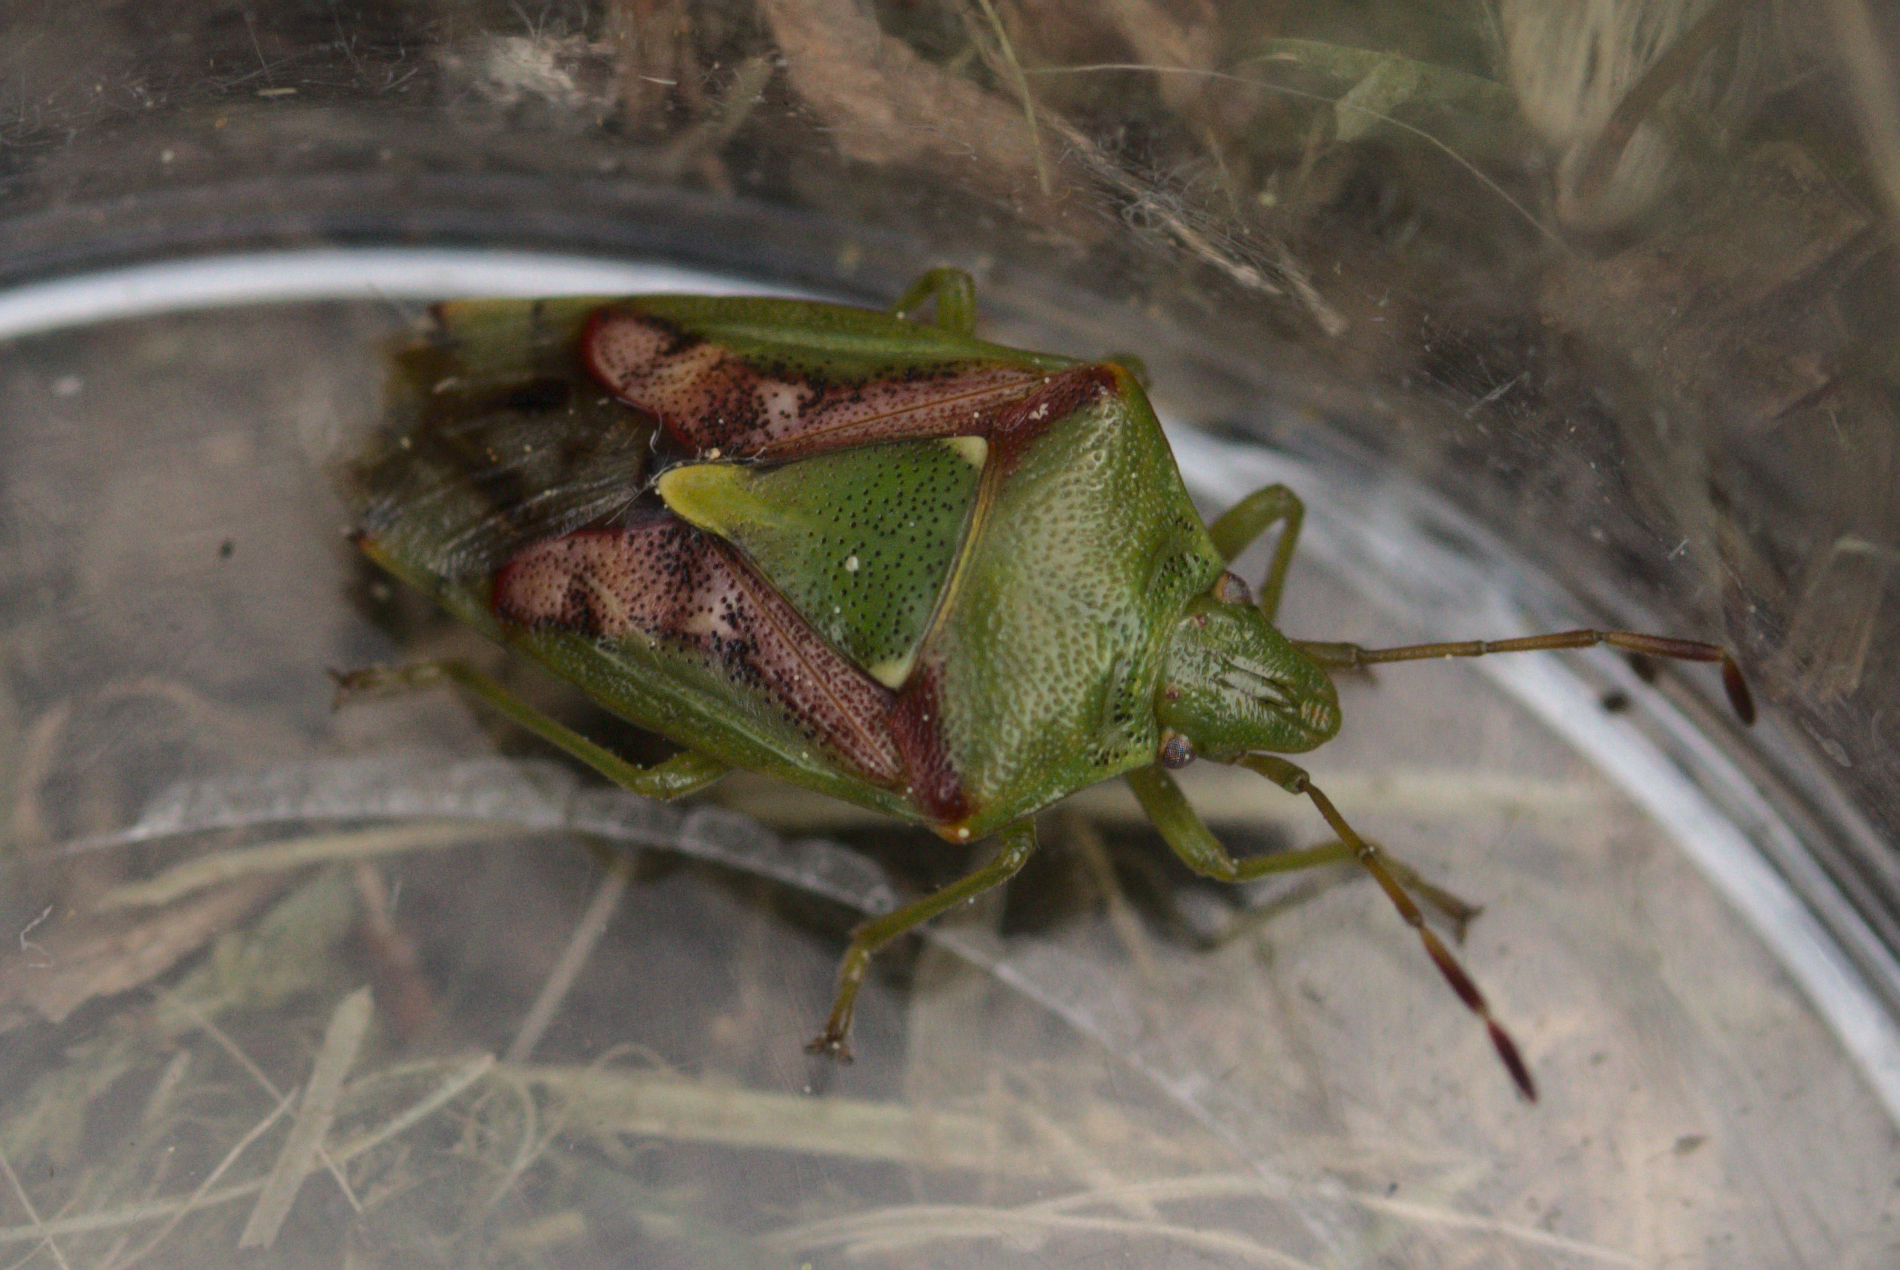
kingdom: Animalia
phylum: Arthropoda
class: Insecta
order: Hemiptera
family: Acanthosomatidae
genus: Cyphostethus
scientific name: Cyphostethus tristriatus
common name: Juniper shieldbug
